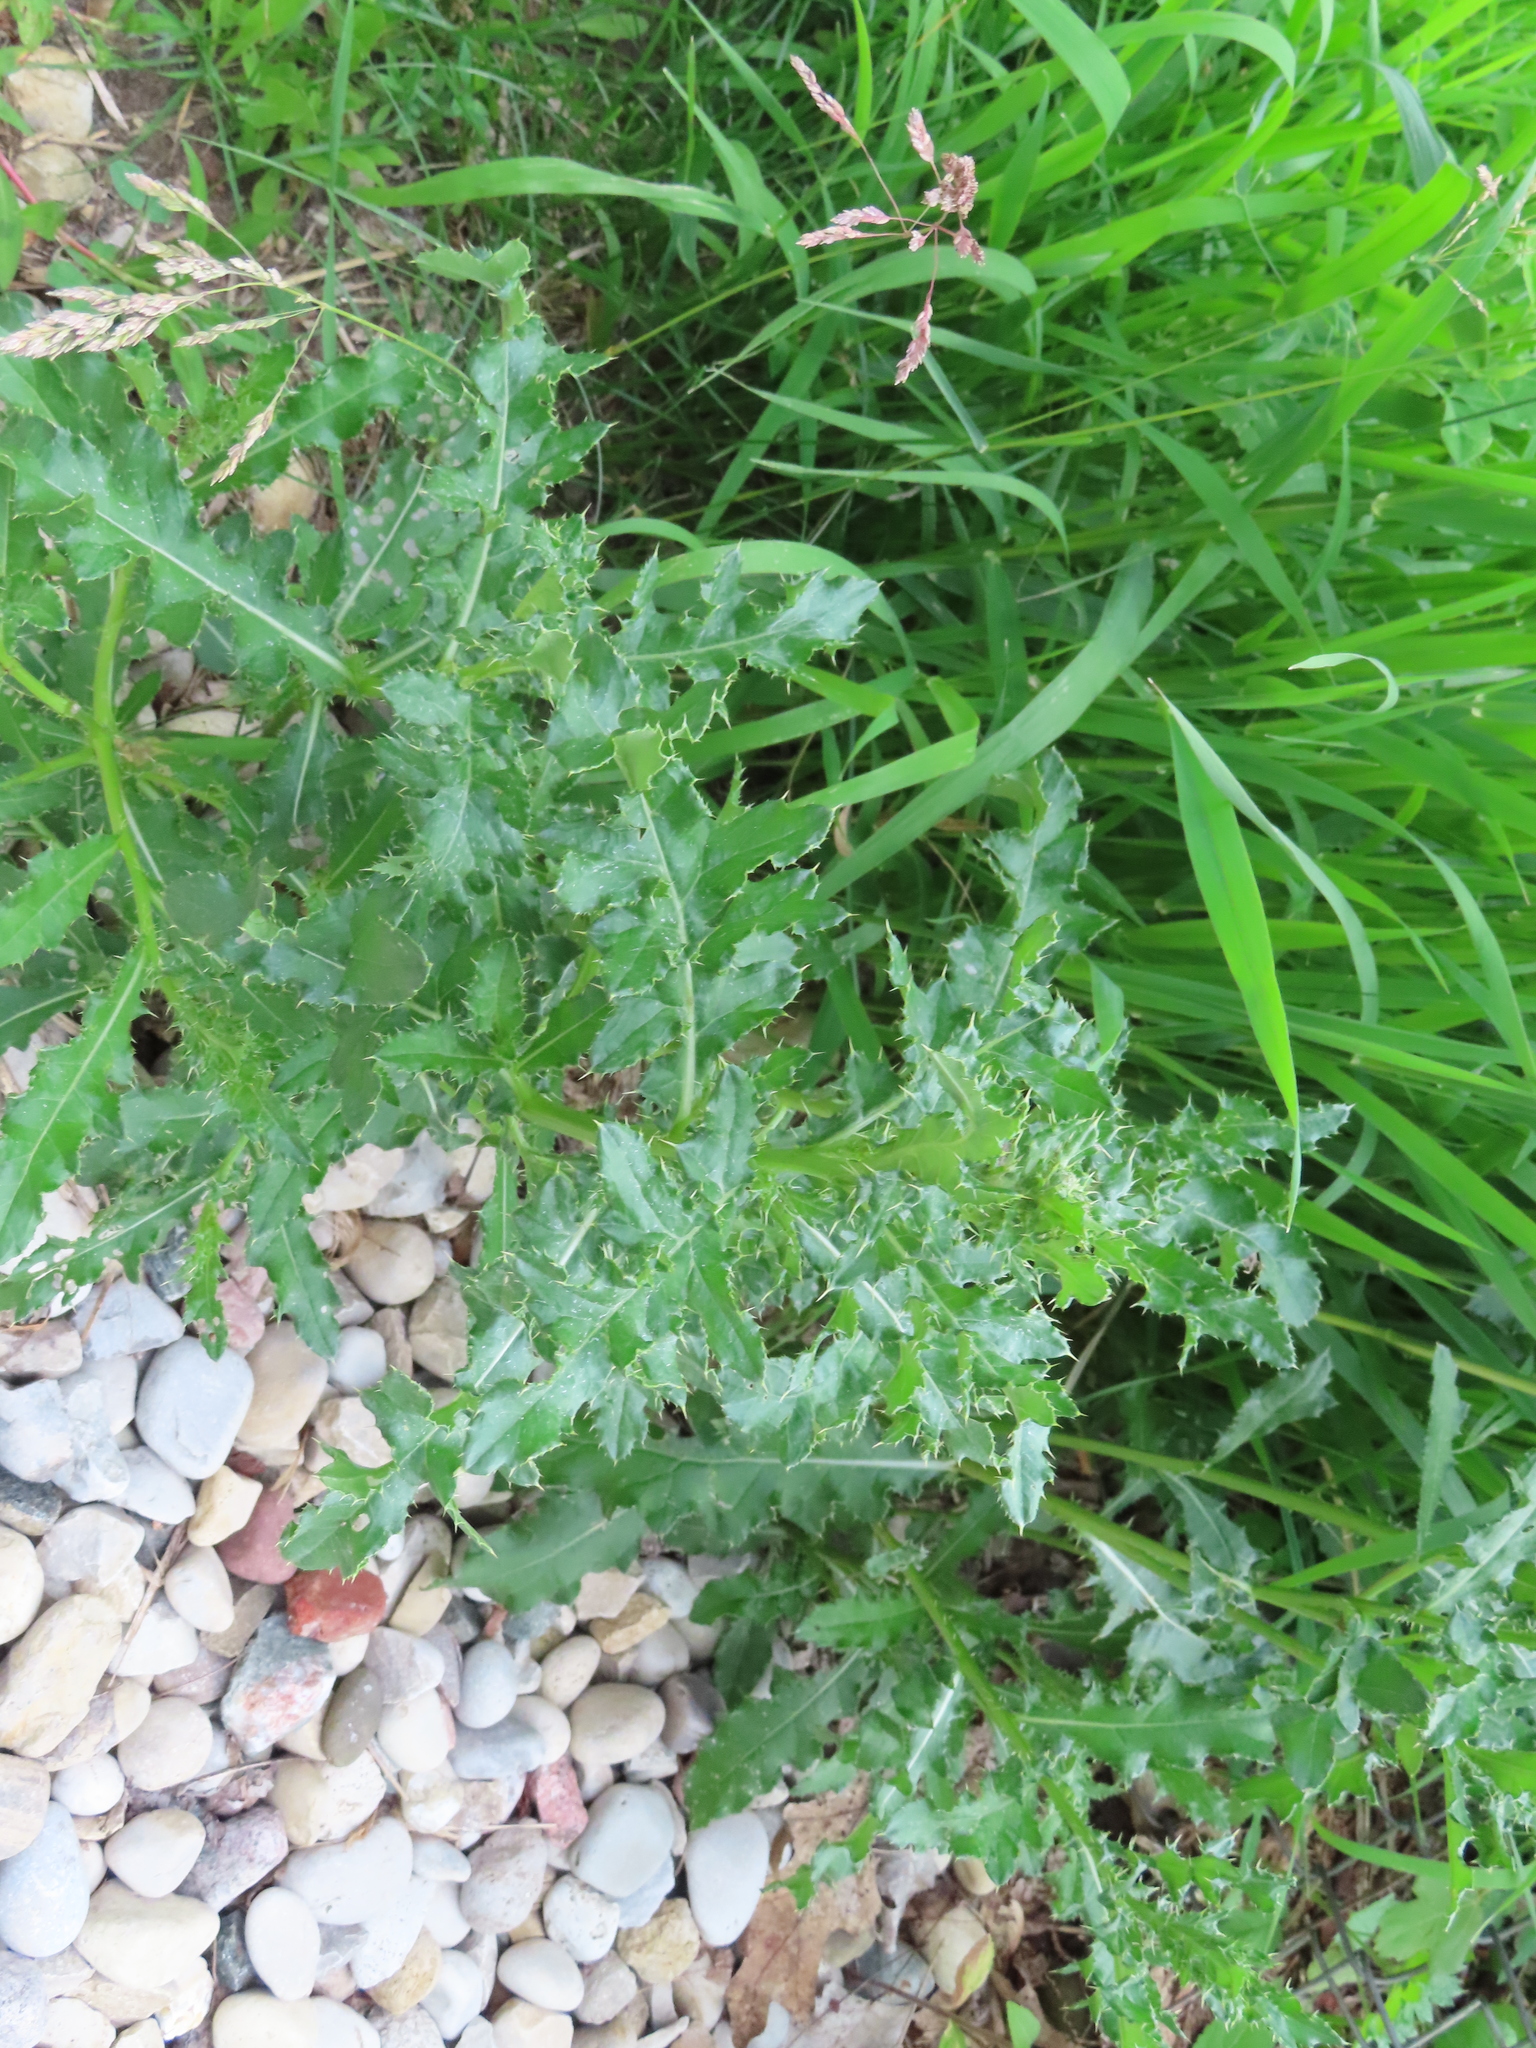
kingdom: Plantae
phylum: Tracheophyta
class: Magnoliopsida
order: Asterales
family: Asteraceae
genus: Cirsium
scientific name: Cirsium arvense
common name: Creeping thistle
